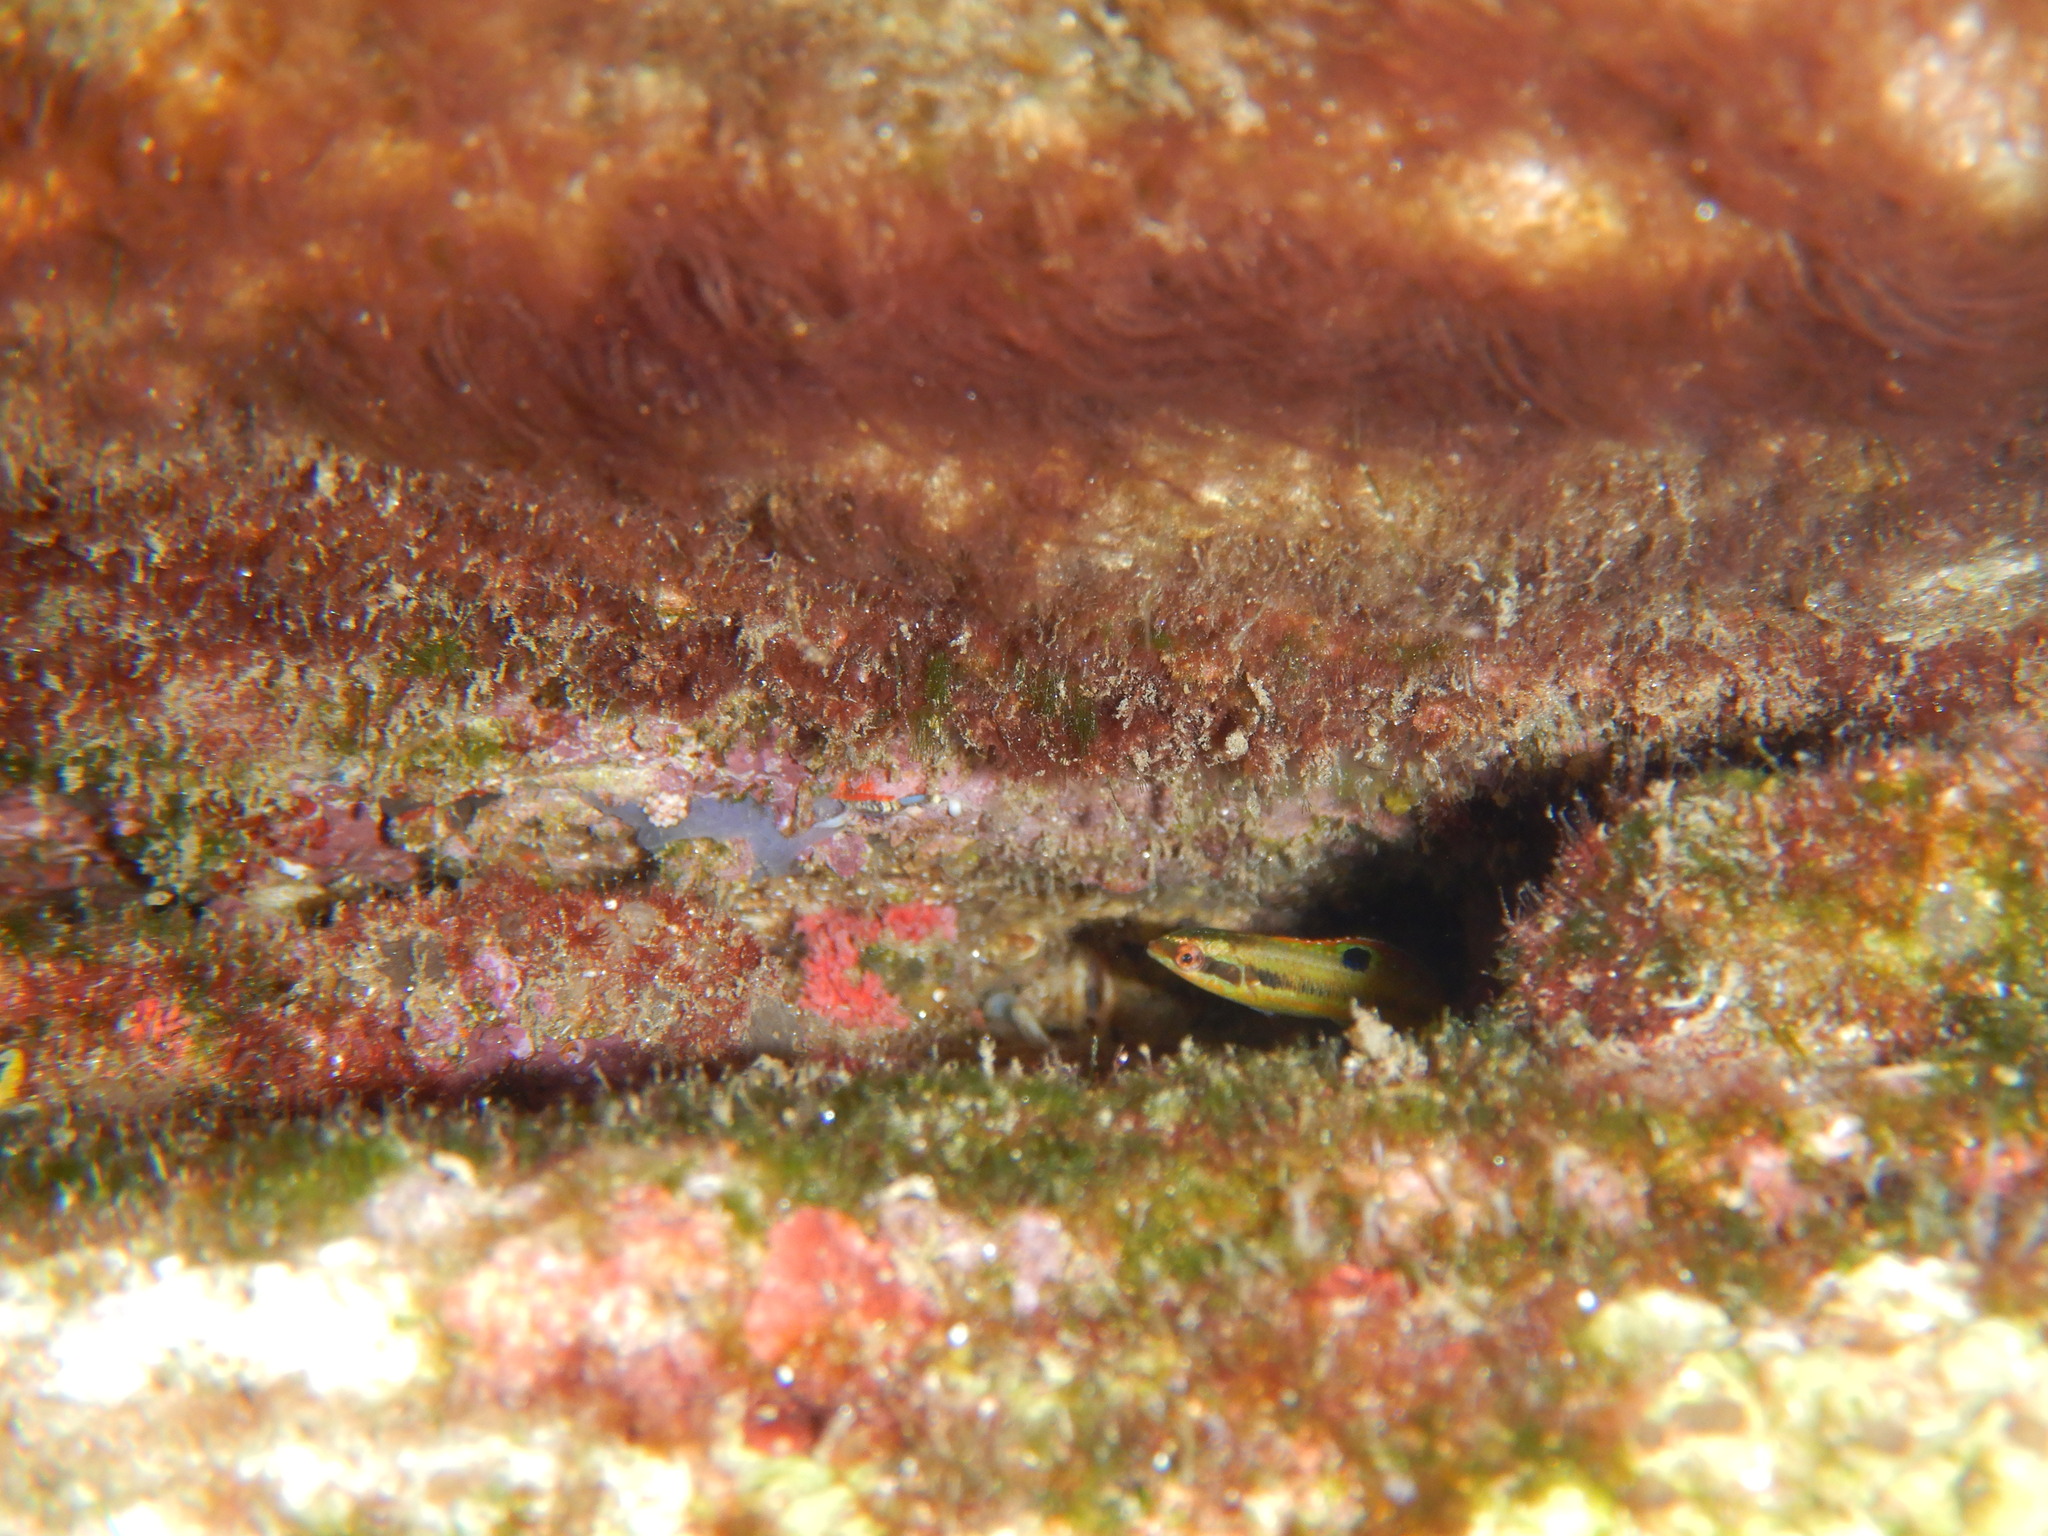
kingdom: Animalia
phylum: Chordata
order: Perciformes
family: Labridae
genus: Thalassoma
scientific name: Thalassoma pavo
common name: Ornate wrasse
